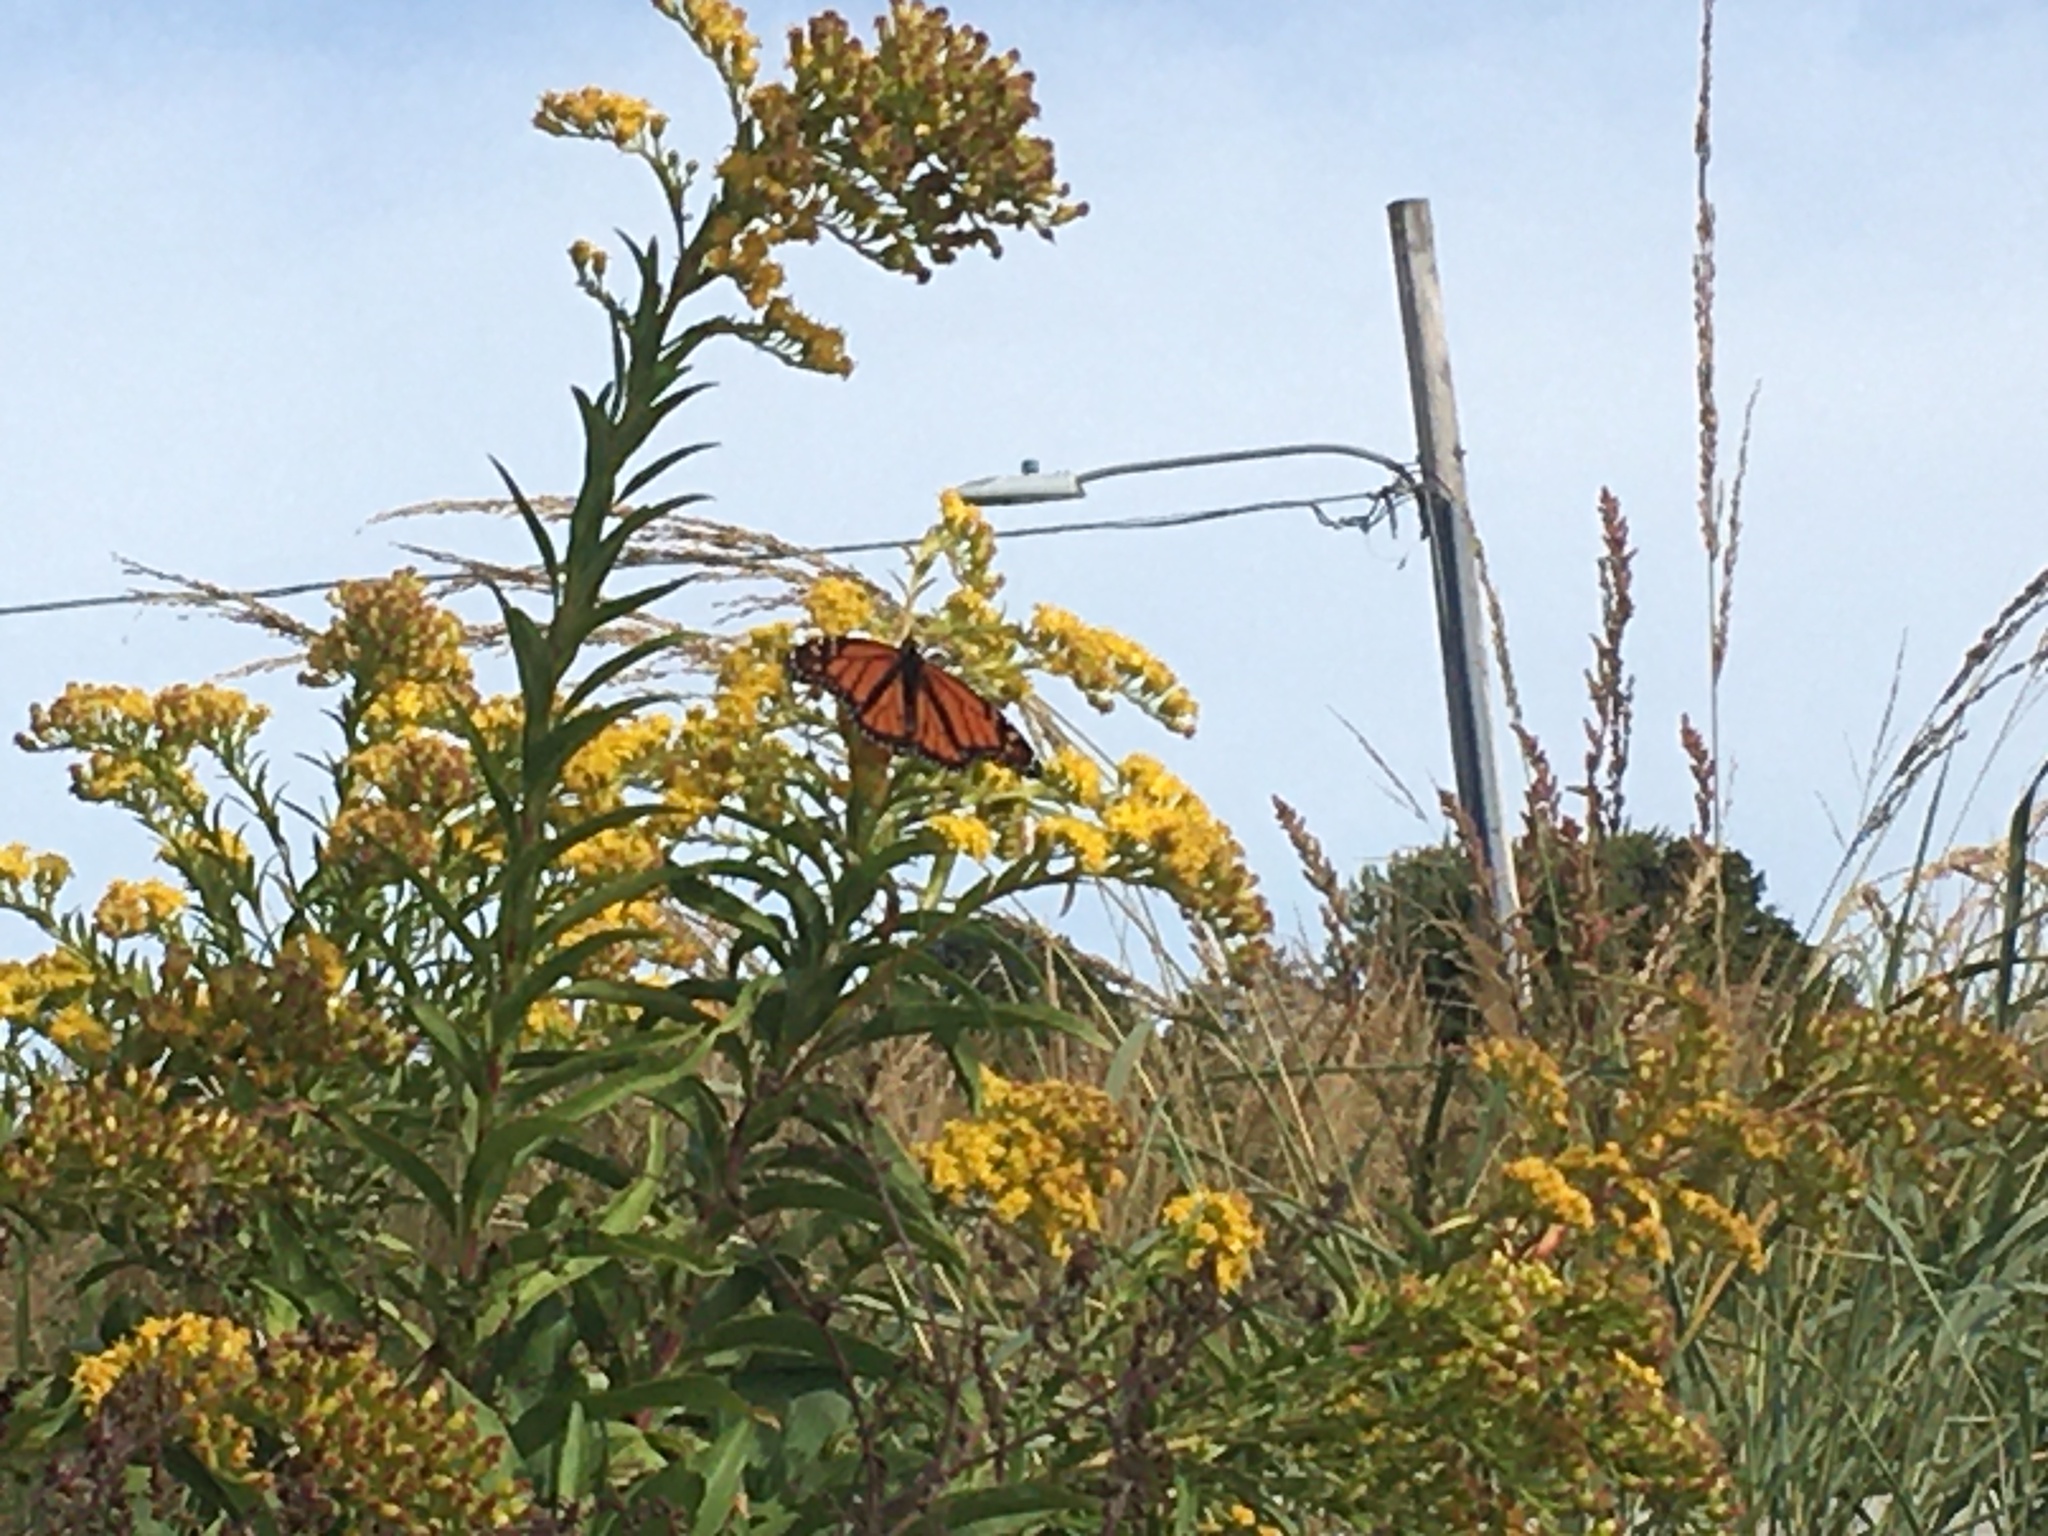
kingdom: Animalia
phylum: Arthropoda
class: Insecta
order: Lepidoptera
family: Nymphalidae
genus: Danaus
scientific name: Danaus plexippus
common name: Monarch
